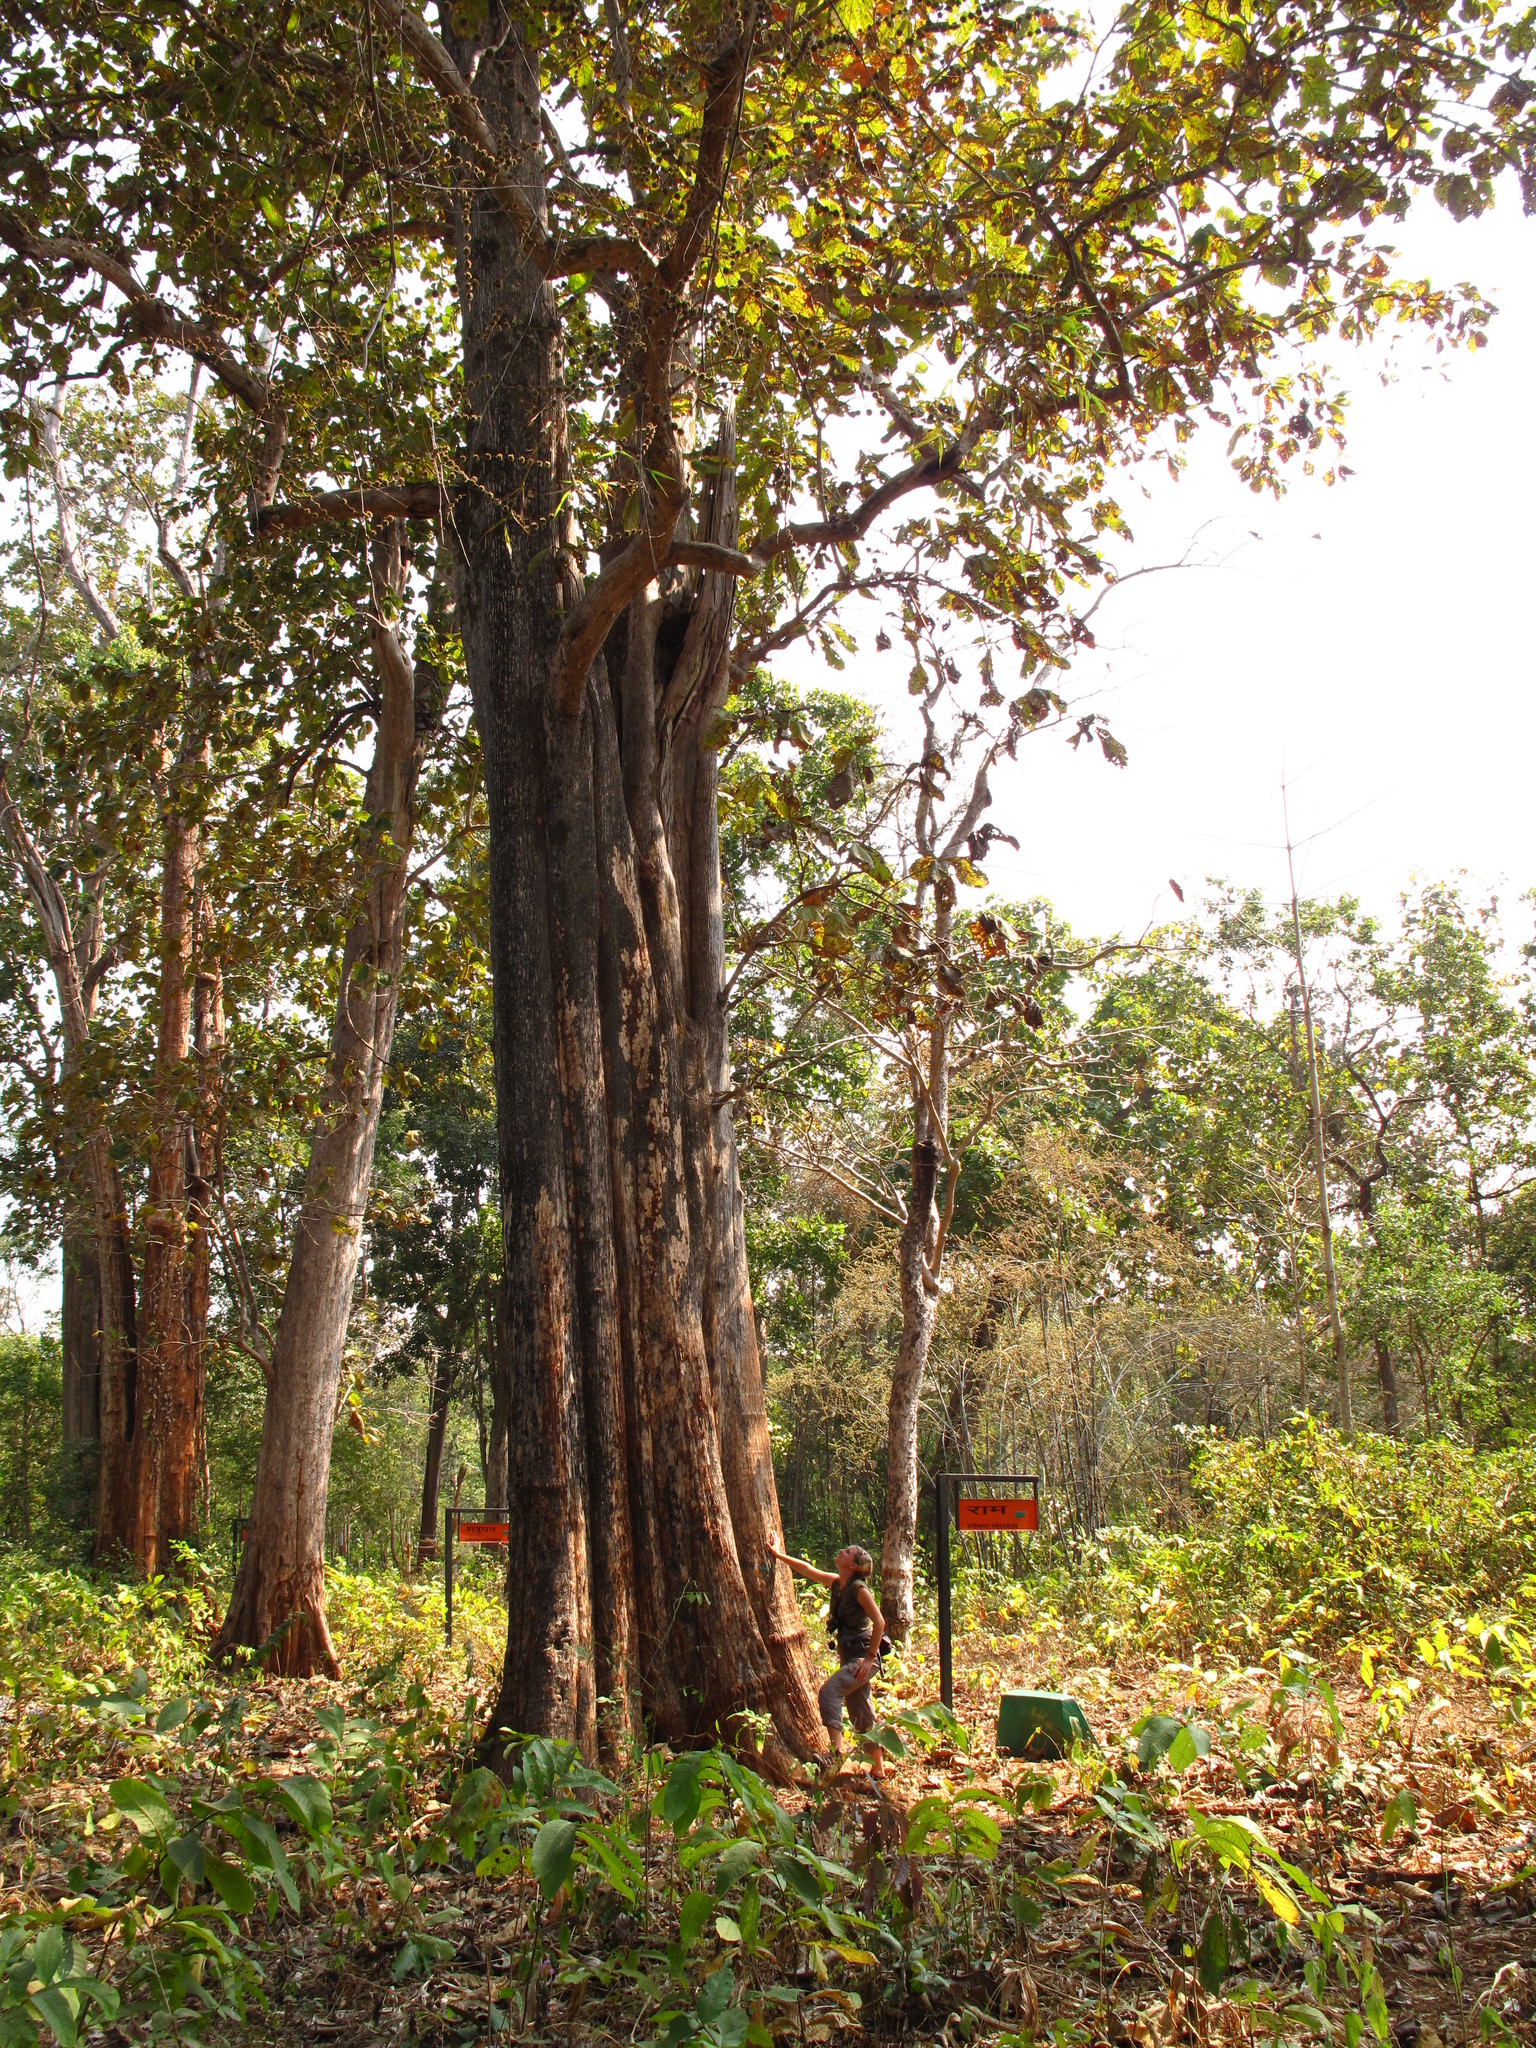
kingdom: Plantae
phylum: Tracheophyta
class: Magnoliopsida
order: Lamiales
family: Lamiaceae
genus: Tectona
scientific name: Tectona grandis
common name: Teak
